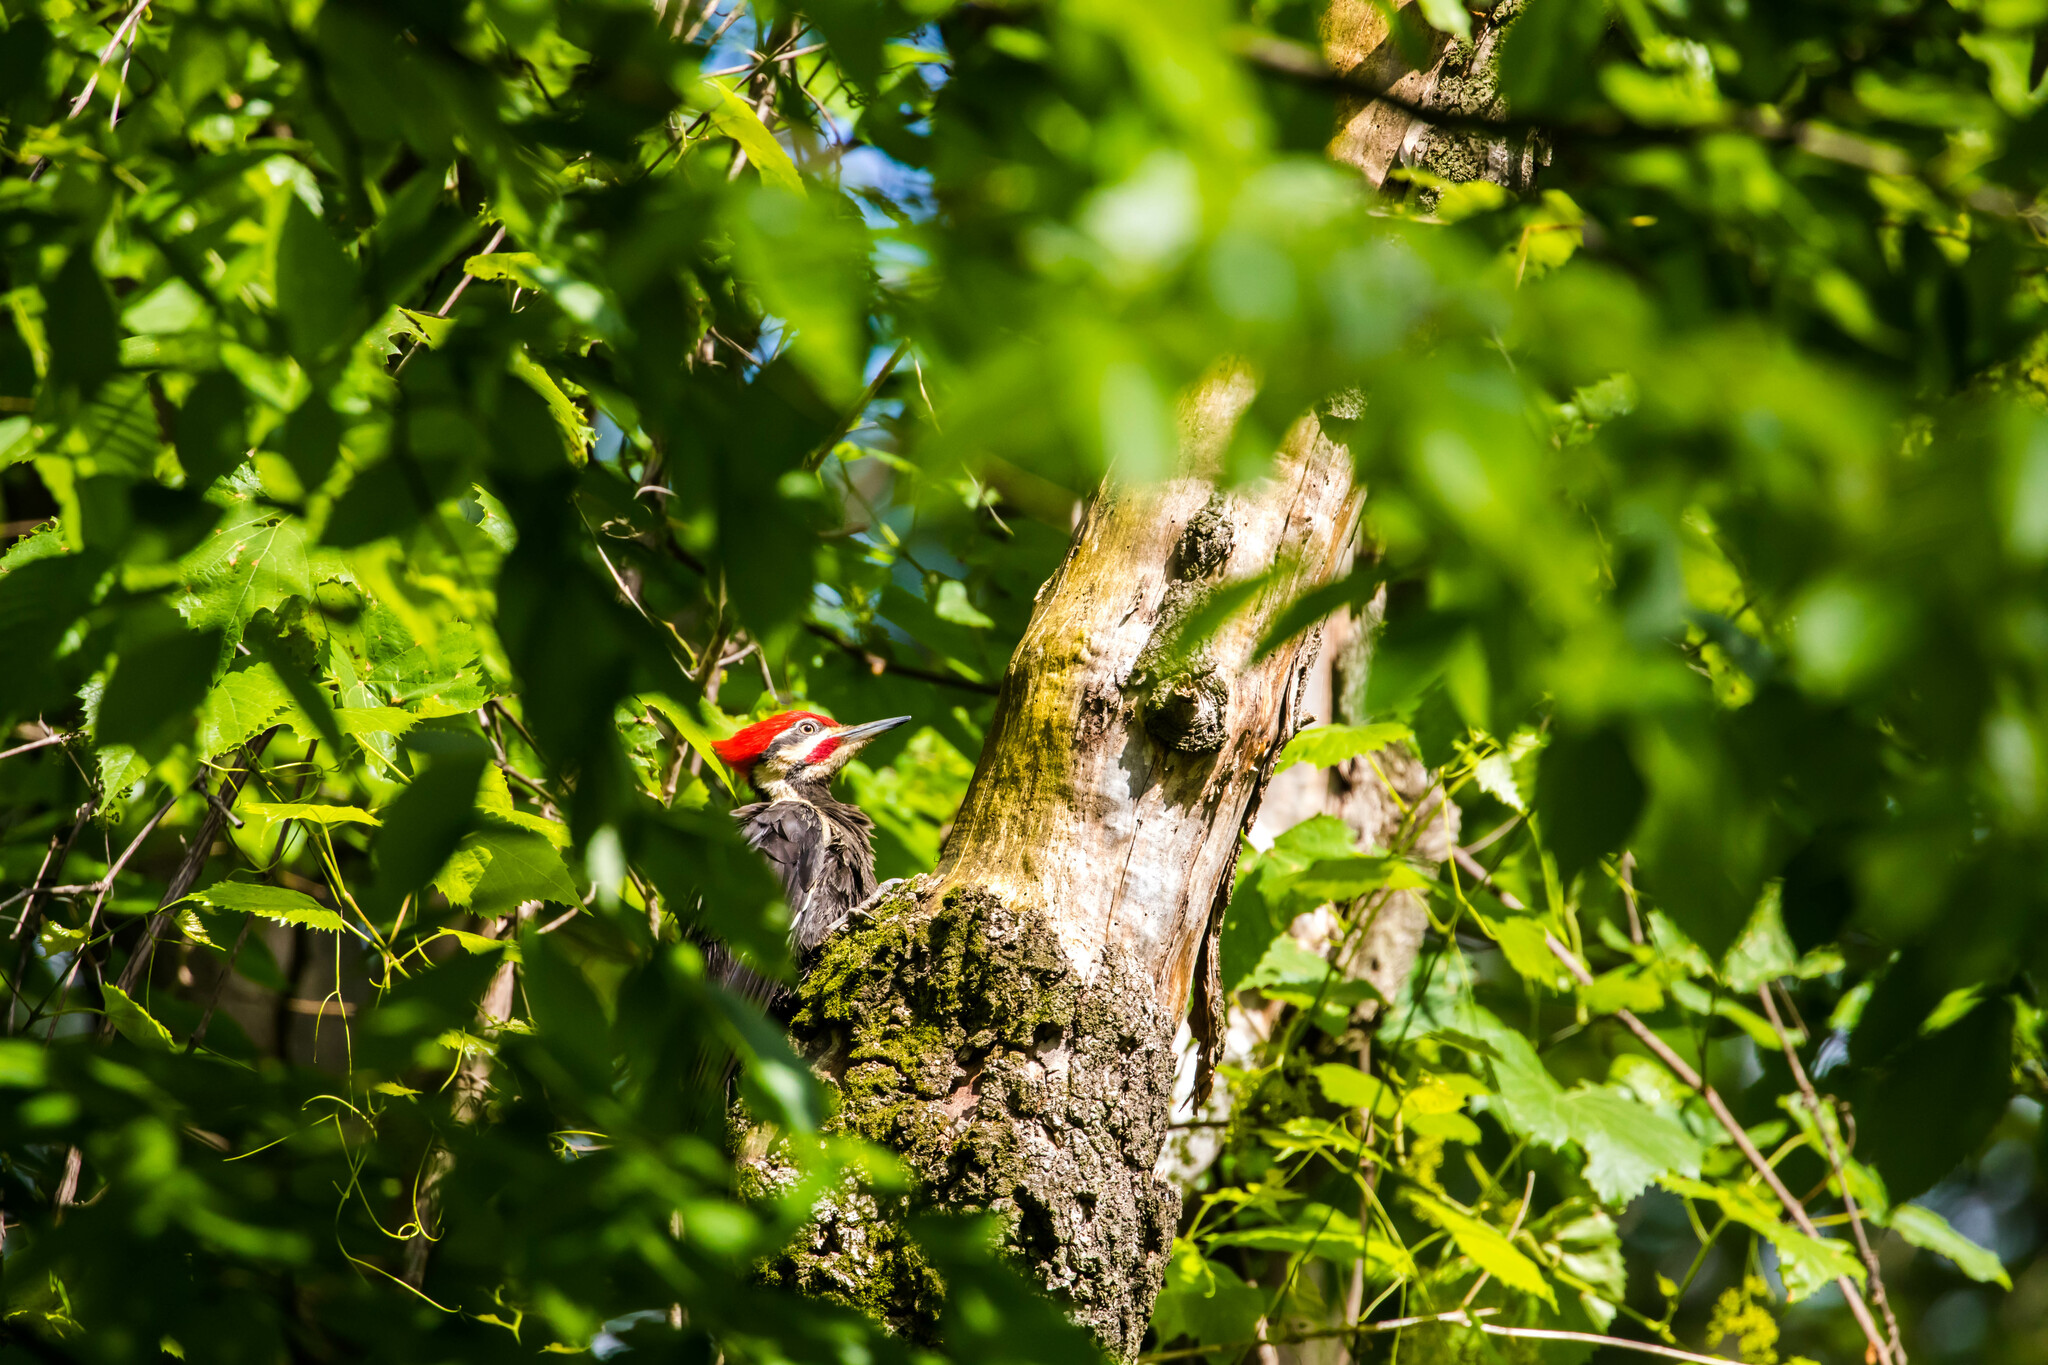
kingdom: Animalia
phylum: Chordata
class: Aves
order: Piciformes
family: Picidae
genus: Dryocopus
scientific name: Dryocopus pileatus
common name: Pileated woodpecker
